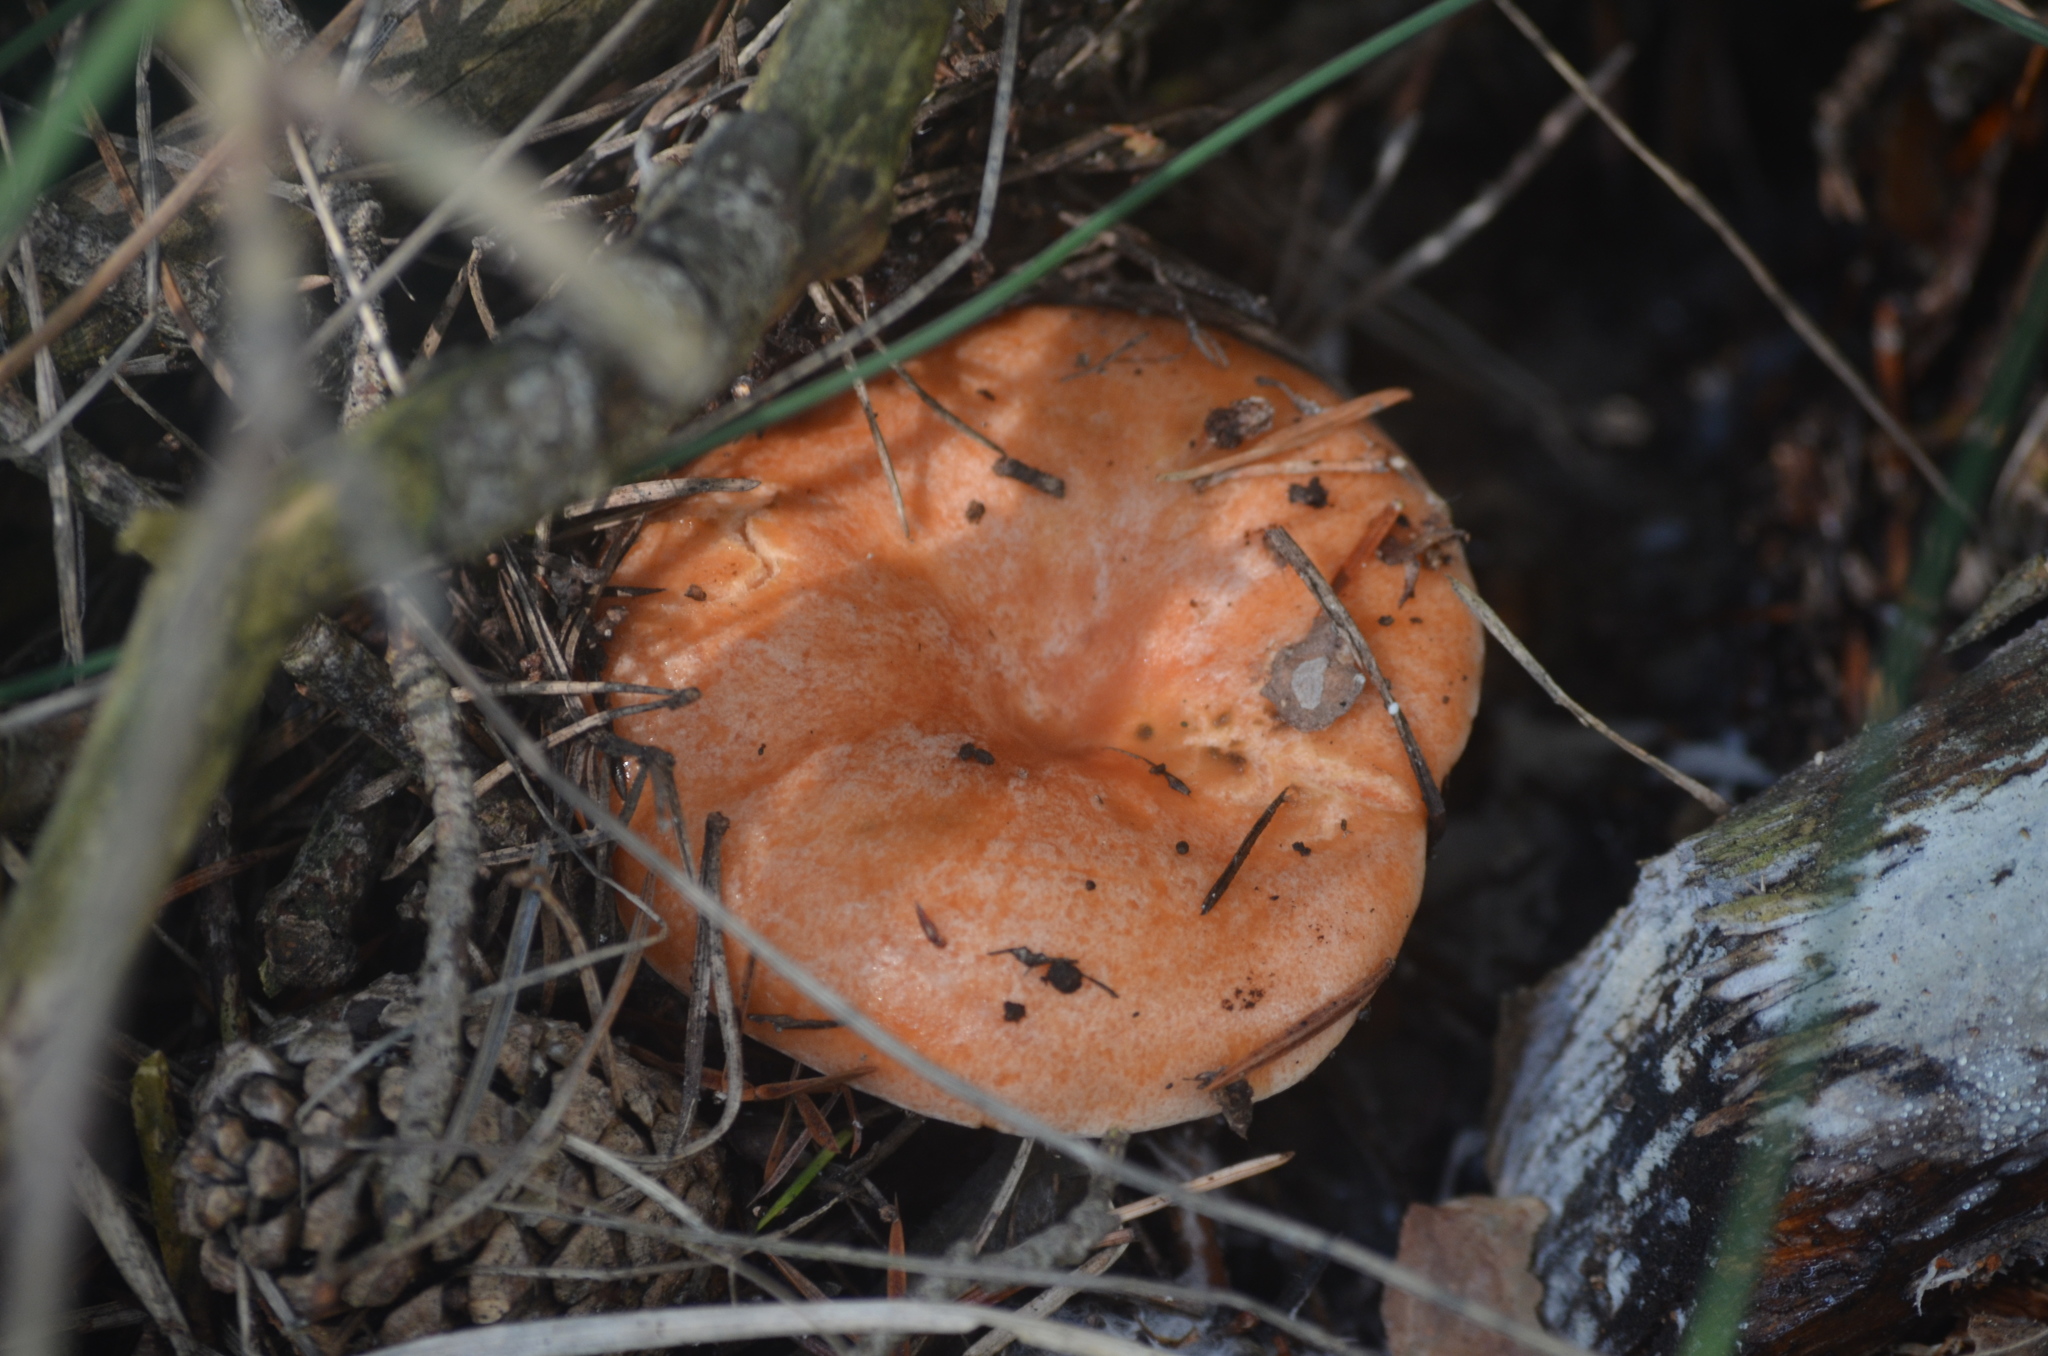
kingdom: Fungi
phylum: Basidiomycota
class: Agaricomycetes
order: Russulales
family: Russulaceae
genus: Lactarius
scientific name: Lactarius deliciosus
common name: Saffron milk-cap
